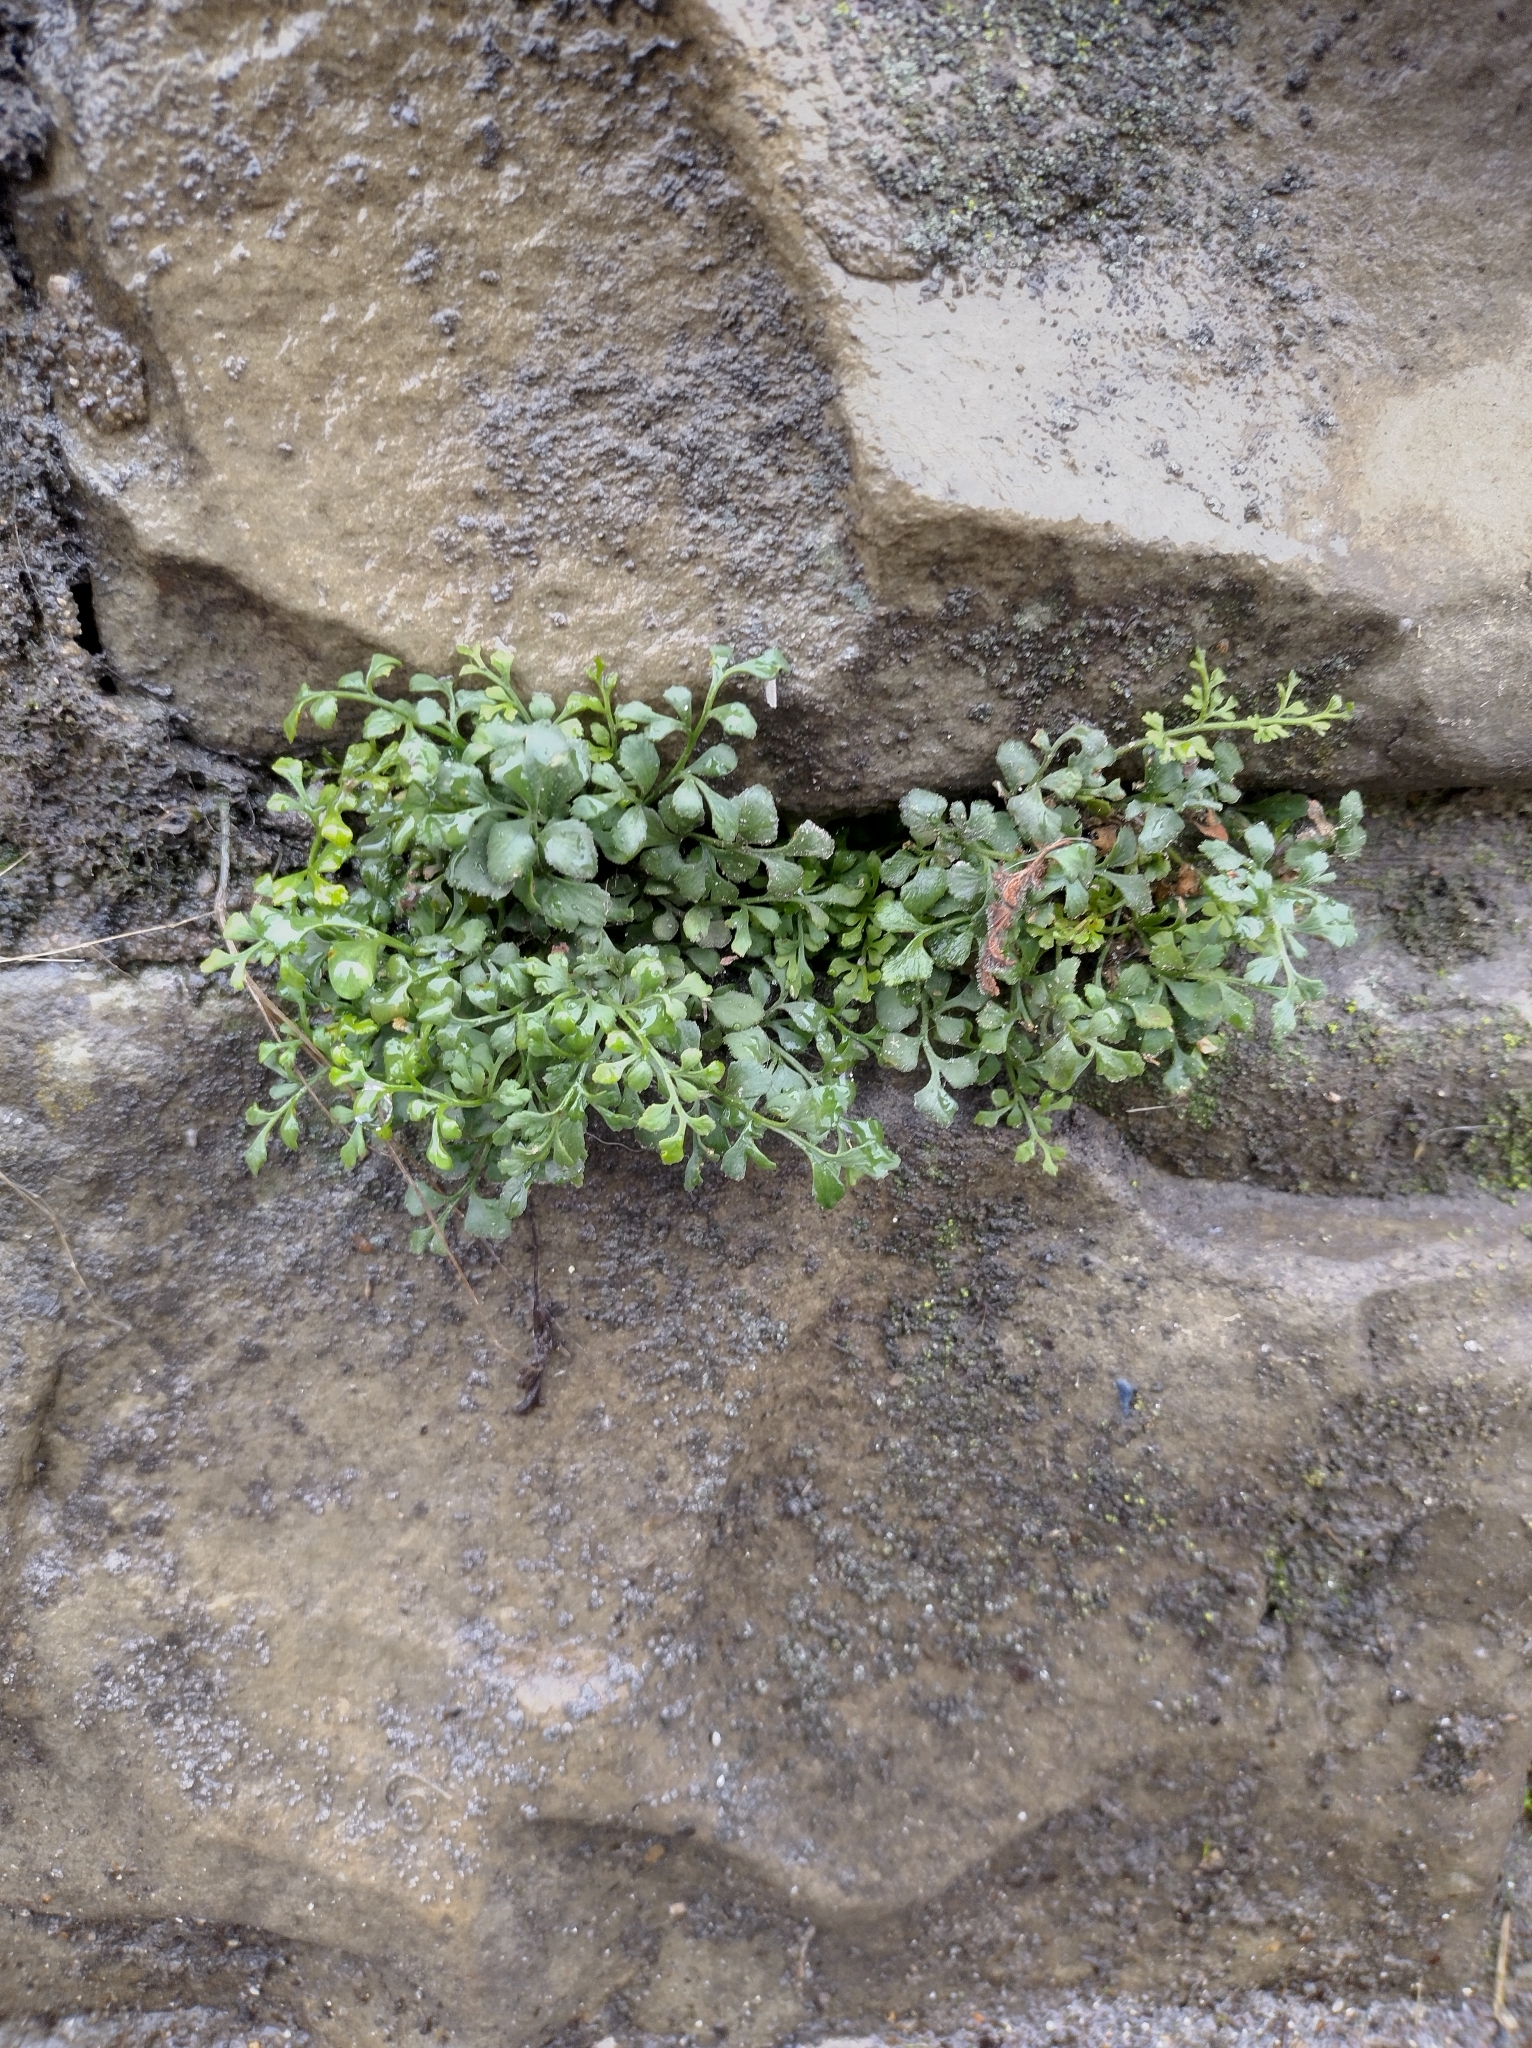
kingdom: Plantae
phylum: Tracheophyta
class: Polypodiopsida
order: Polypodiales
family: Aspleniaceae
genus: Asplenium
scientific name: Asplenium ruta-muraria
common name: Wall-rue
